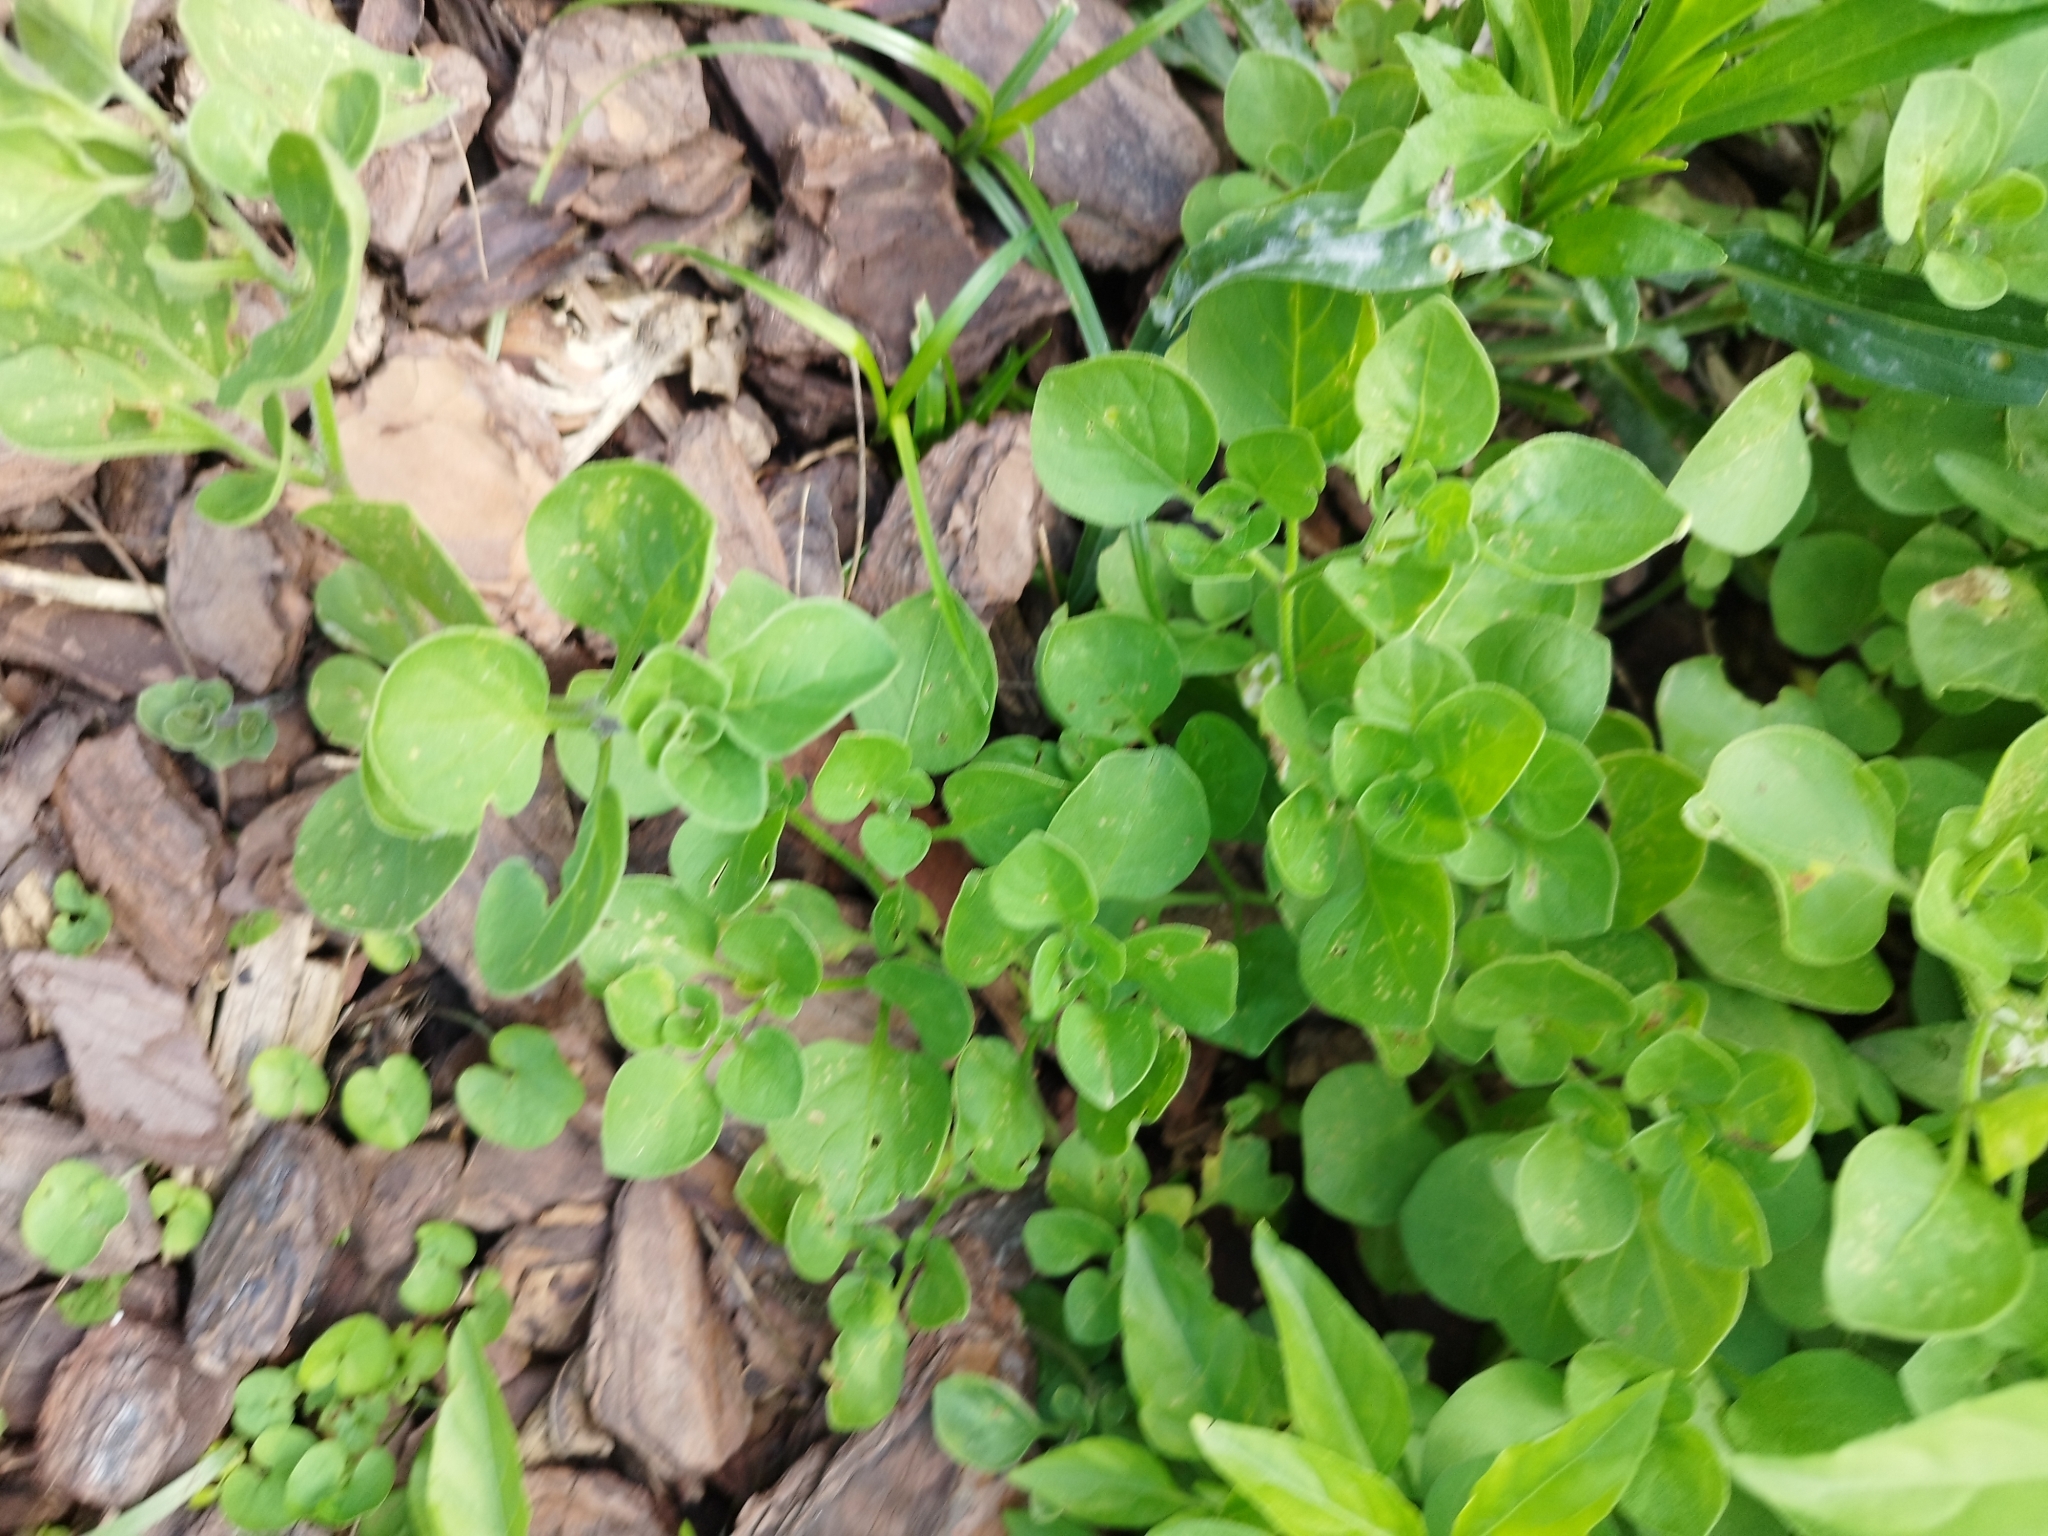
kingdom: Plantae
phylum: Tracheophyta
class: Magnoliopsida
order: Solanales
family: Solanaceae
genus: Salpichroa
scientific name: Salpichroa origanifolia
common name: Lily-of-the-valley-vine
